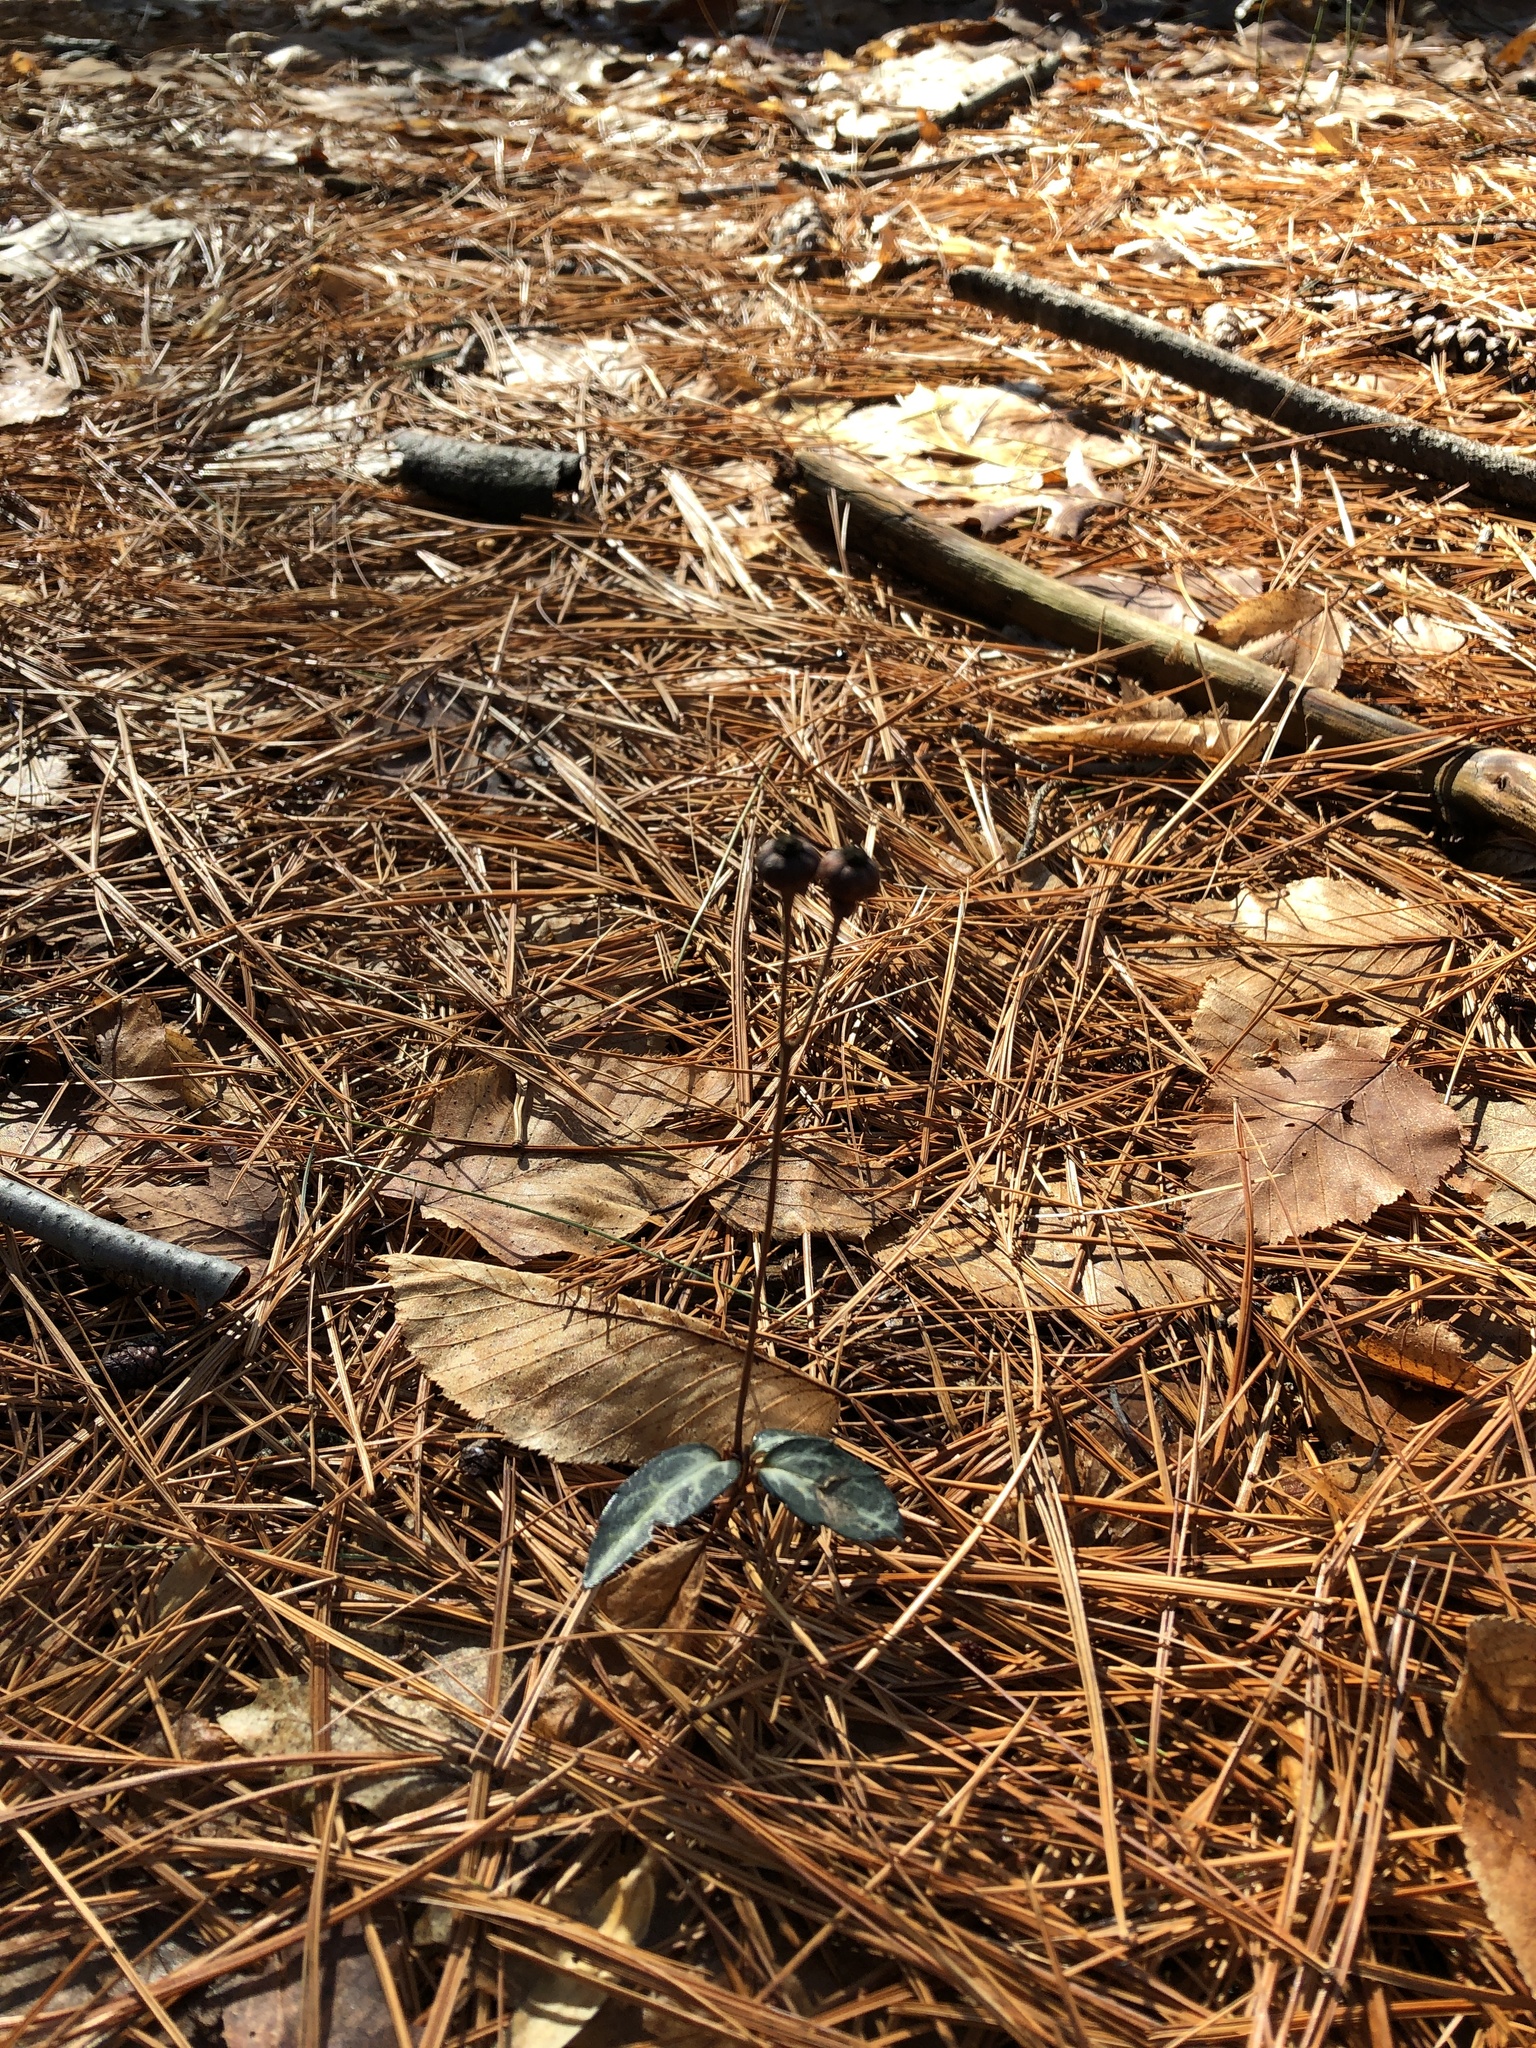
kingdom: Plantae
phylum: Tracheophyta
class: Magnoliopsida
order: Ericales
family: Ericaceae
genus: Chimaphila
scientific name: Chimaphila maculata
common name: Spotted pipsissewa
